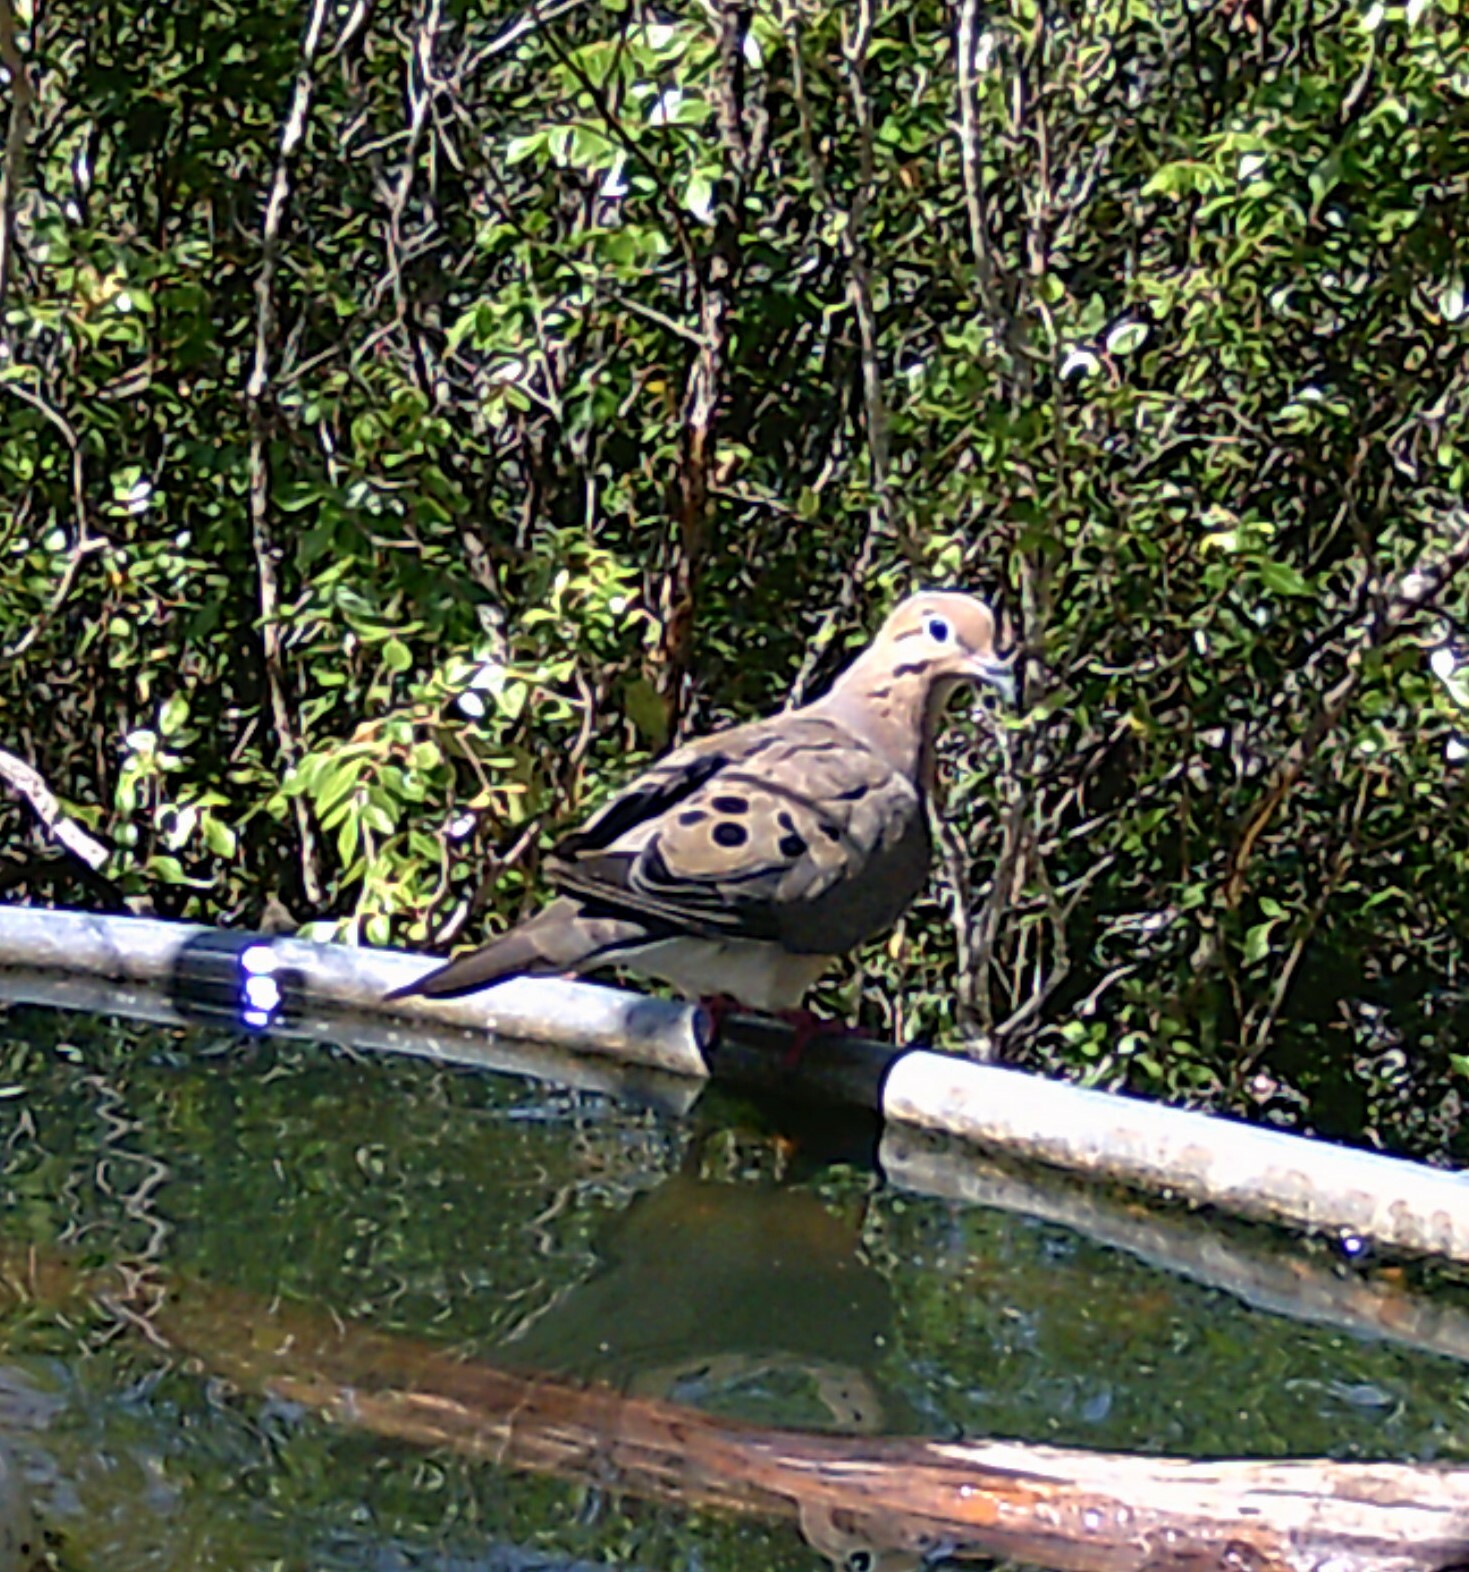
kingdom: Animalia
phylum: Chordata
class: Aves
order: Columbiformes
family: Columbidae
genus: Zenaida
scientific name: Zenaida macroura
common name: Mourning dove
